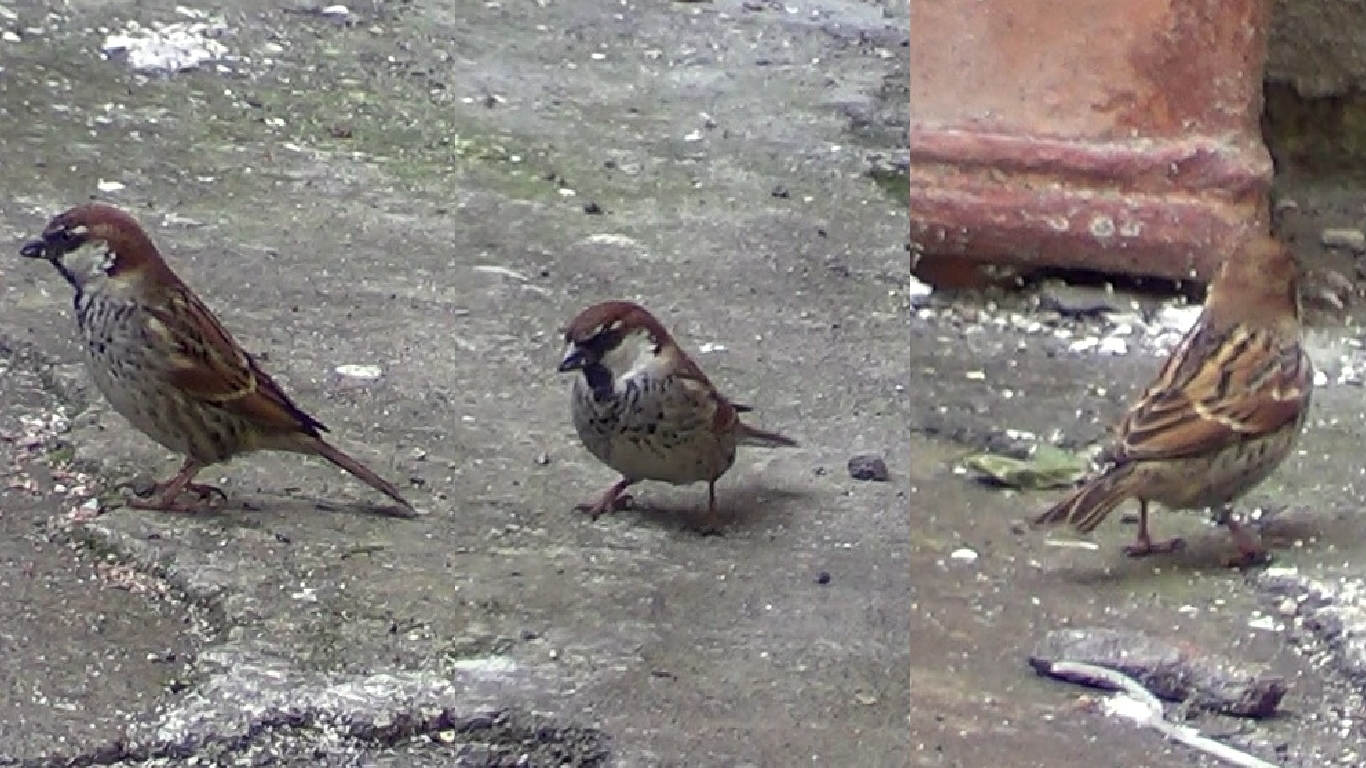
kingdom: Animalia
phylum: Chordata
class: Aves
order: Passeriformes
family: Passeridae
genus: Passer
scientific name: Passer hispaniolensis
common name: Spanish sparrow
